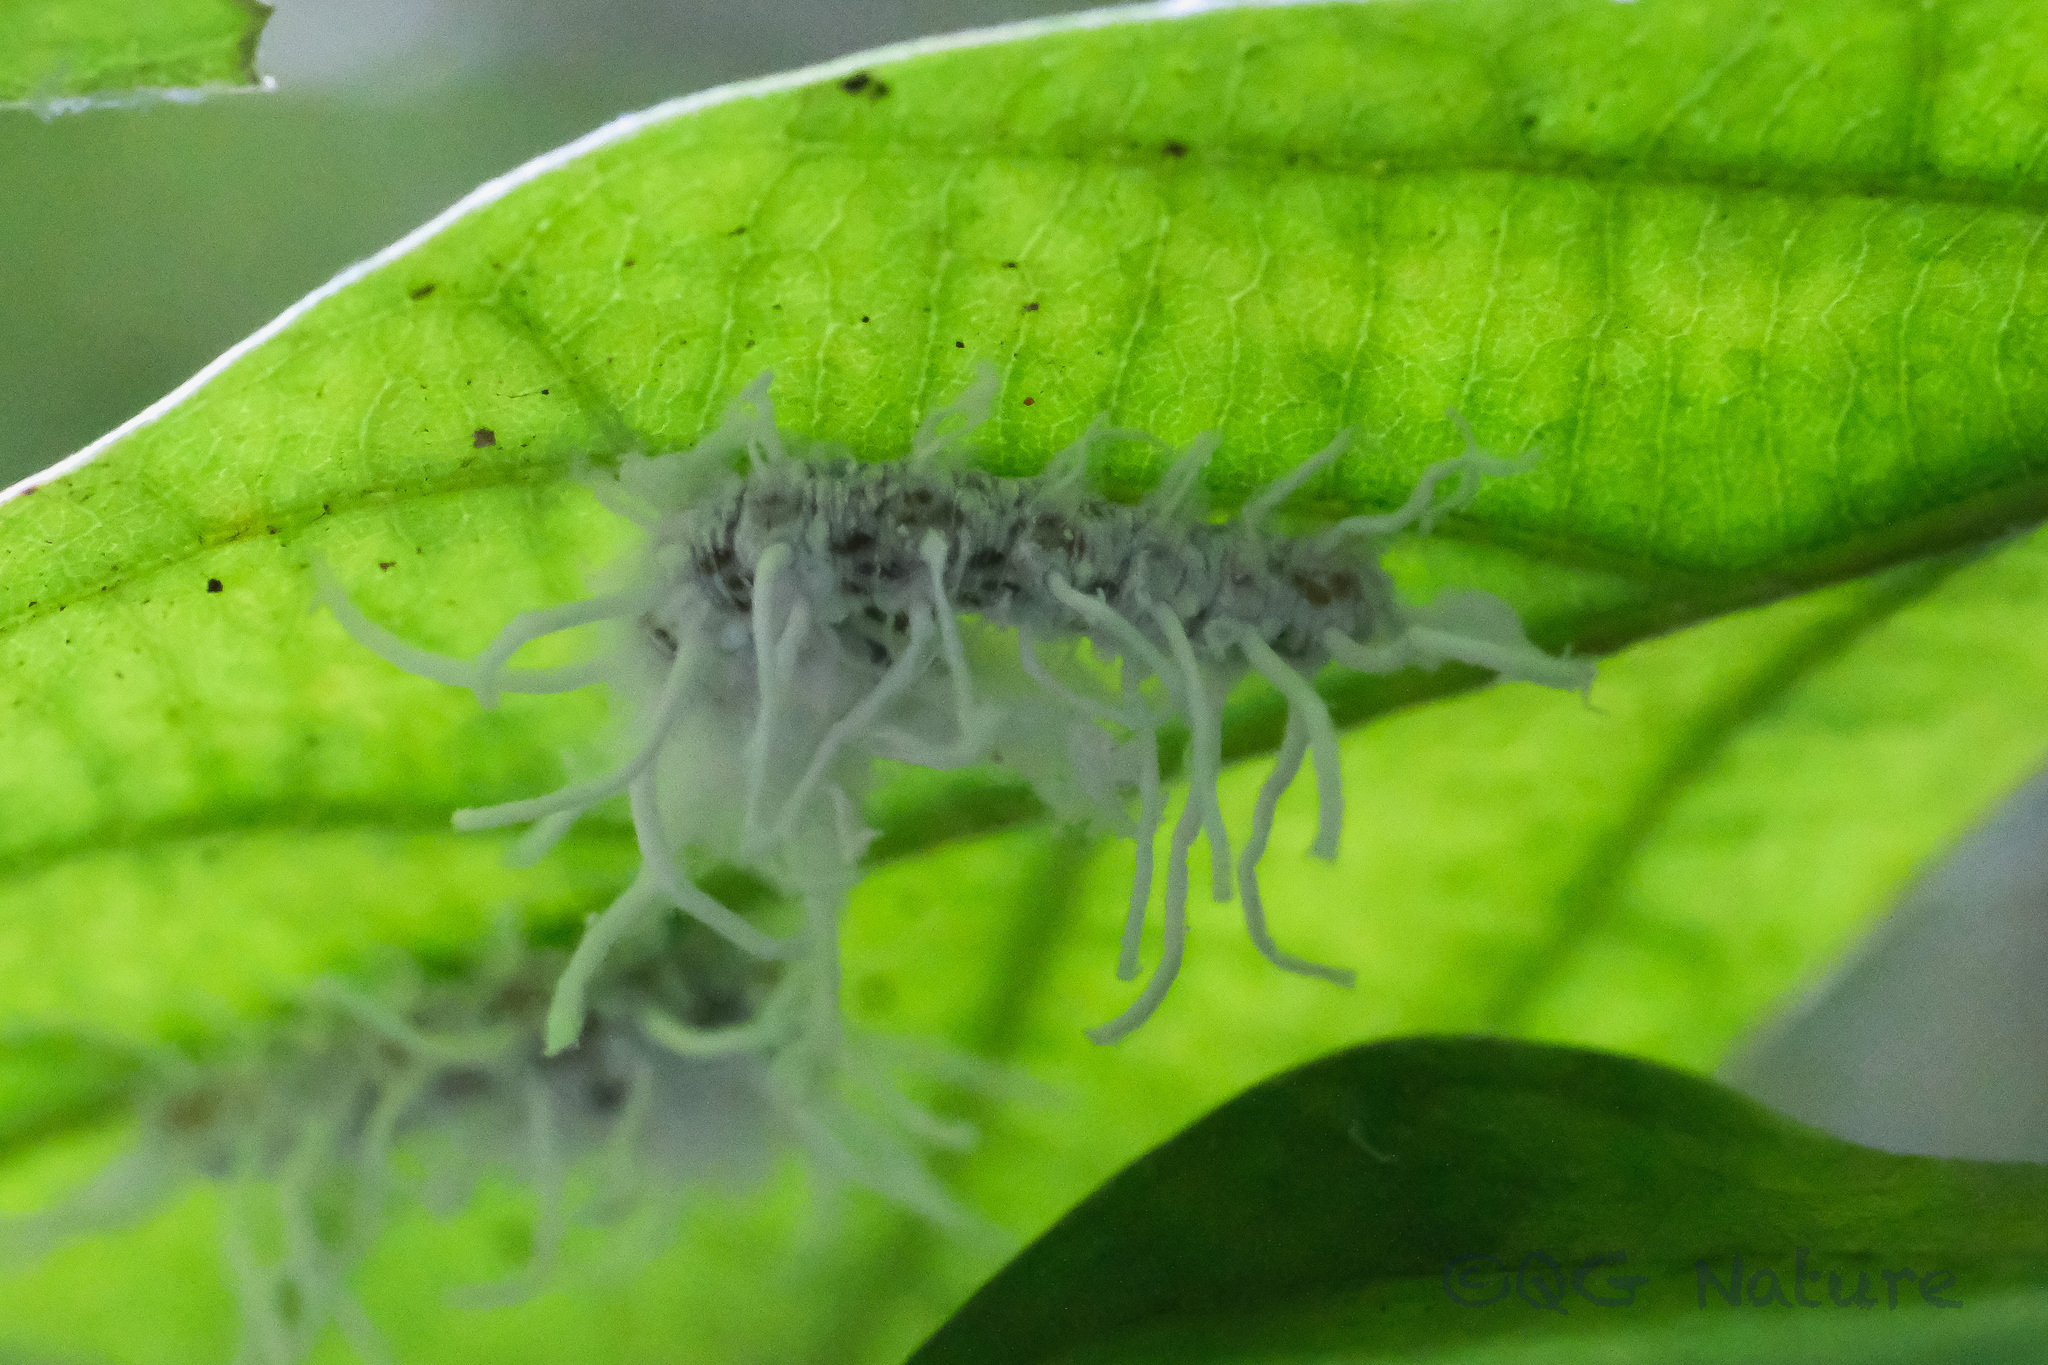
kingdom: Animalia
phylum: Arthropoda
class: Insecta
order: Lepidoptera
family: Epicopeiidae
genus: Epicopeia
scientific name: Epicopeia polydora
